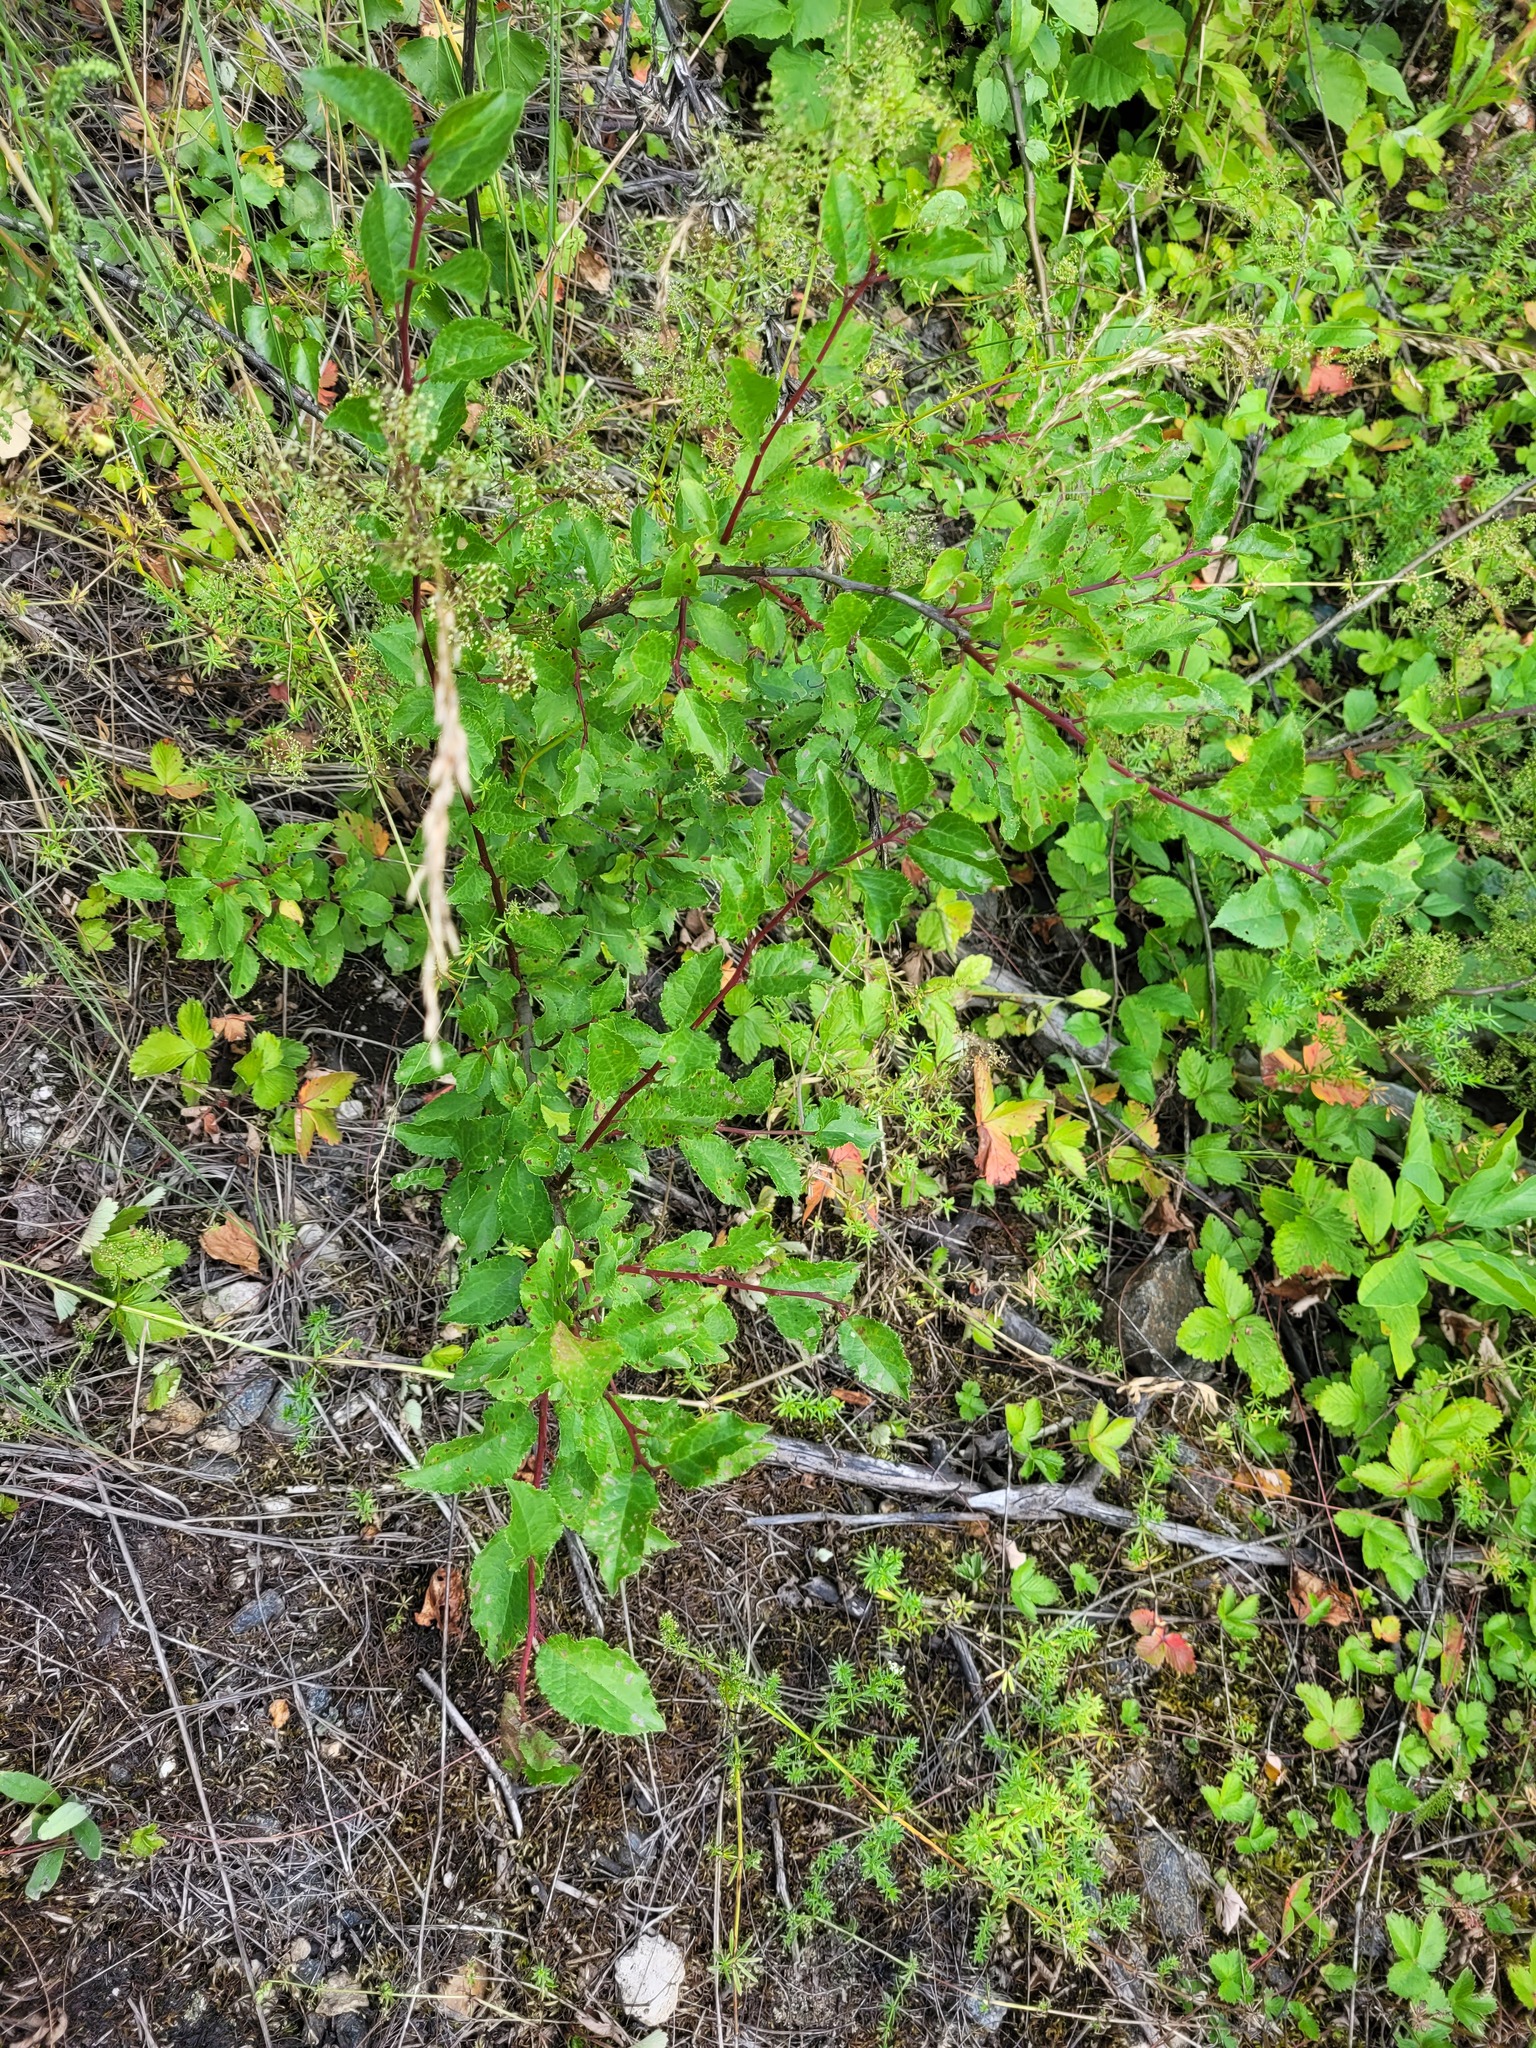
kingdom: Plantae
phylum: Tracheophyta
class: Magnoliopsida
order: Rosales
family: Rosaceae
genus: Prunus
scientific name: Prunus spinosa
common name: Blackthorn
